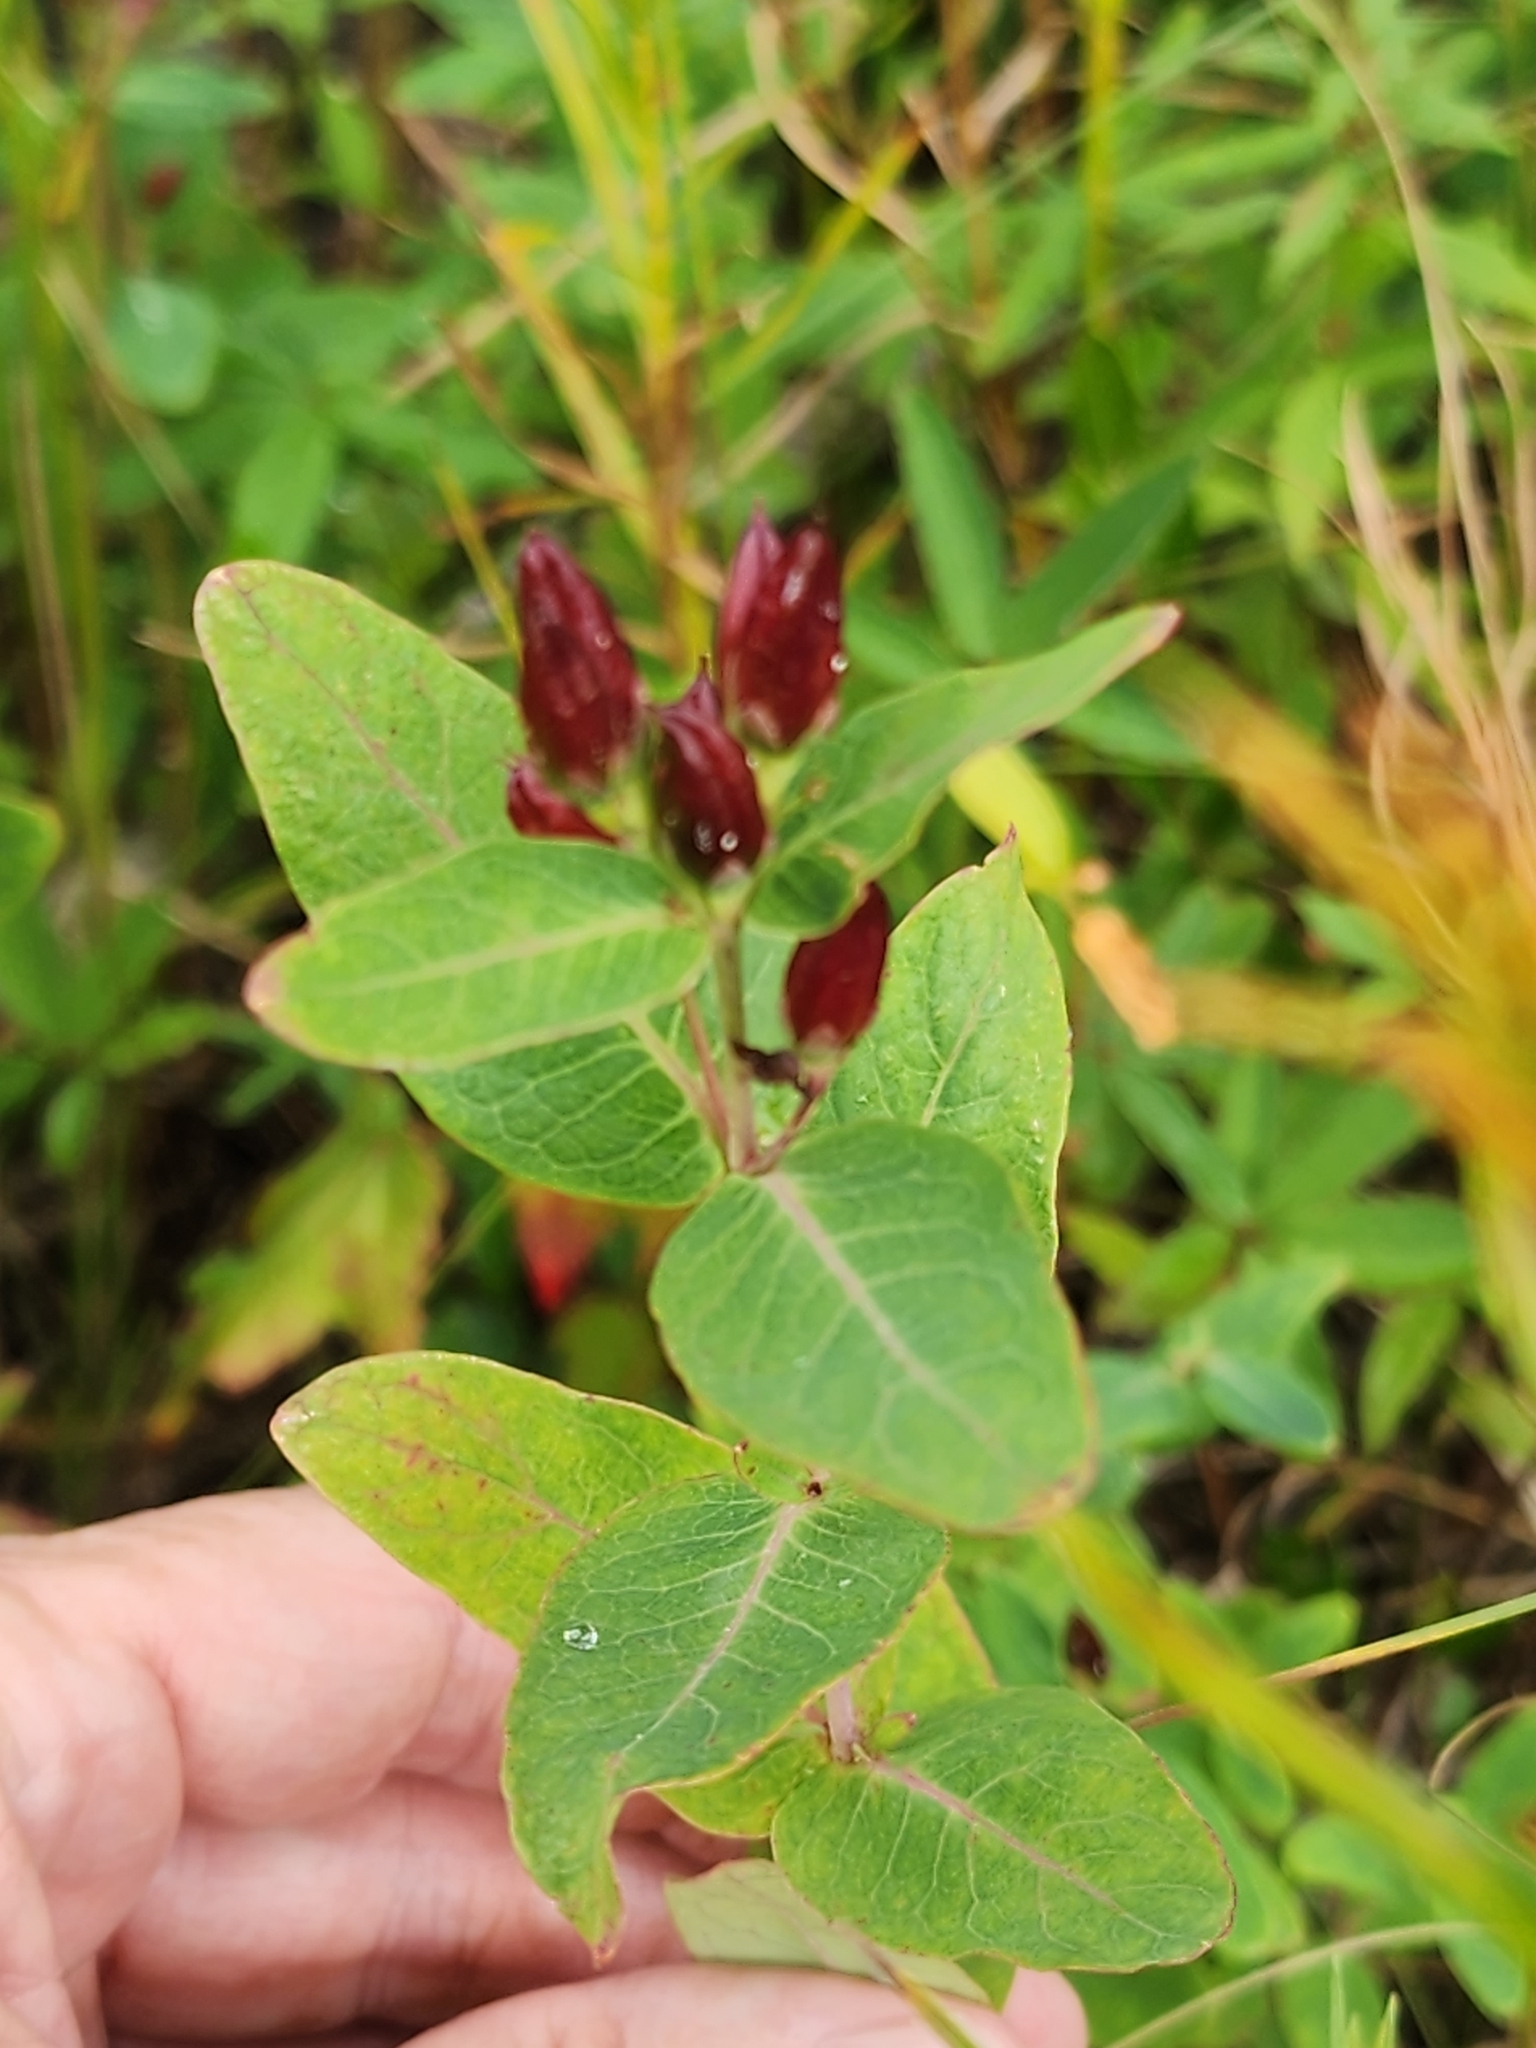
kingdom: Plantae
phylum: Tracheophyta
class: Magnoliopsida
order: Malpighiales
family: Hypericaceae
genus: Triadenum
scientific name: Triadenum fraseri
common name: Fraser's marsh st. johnswort
